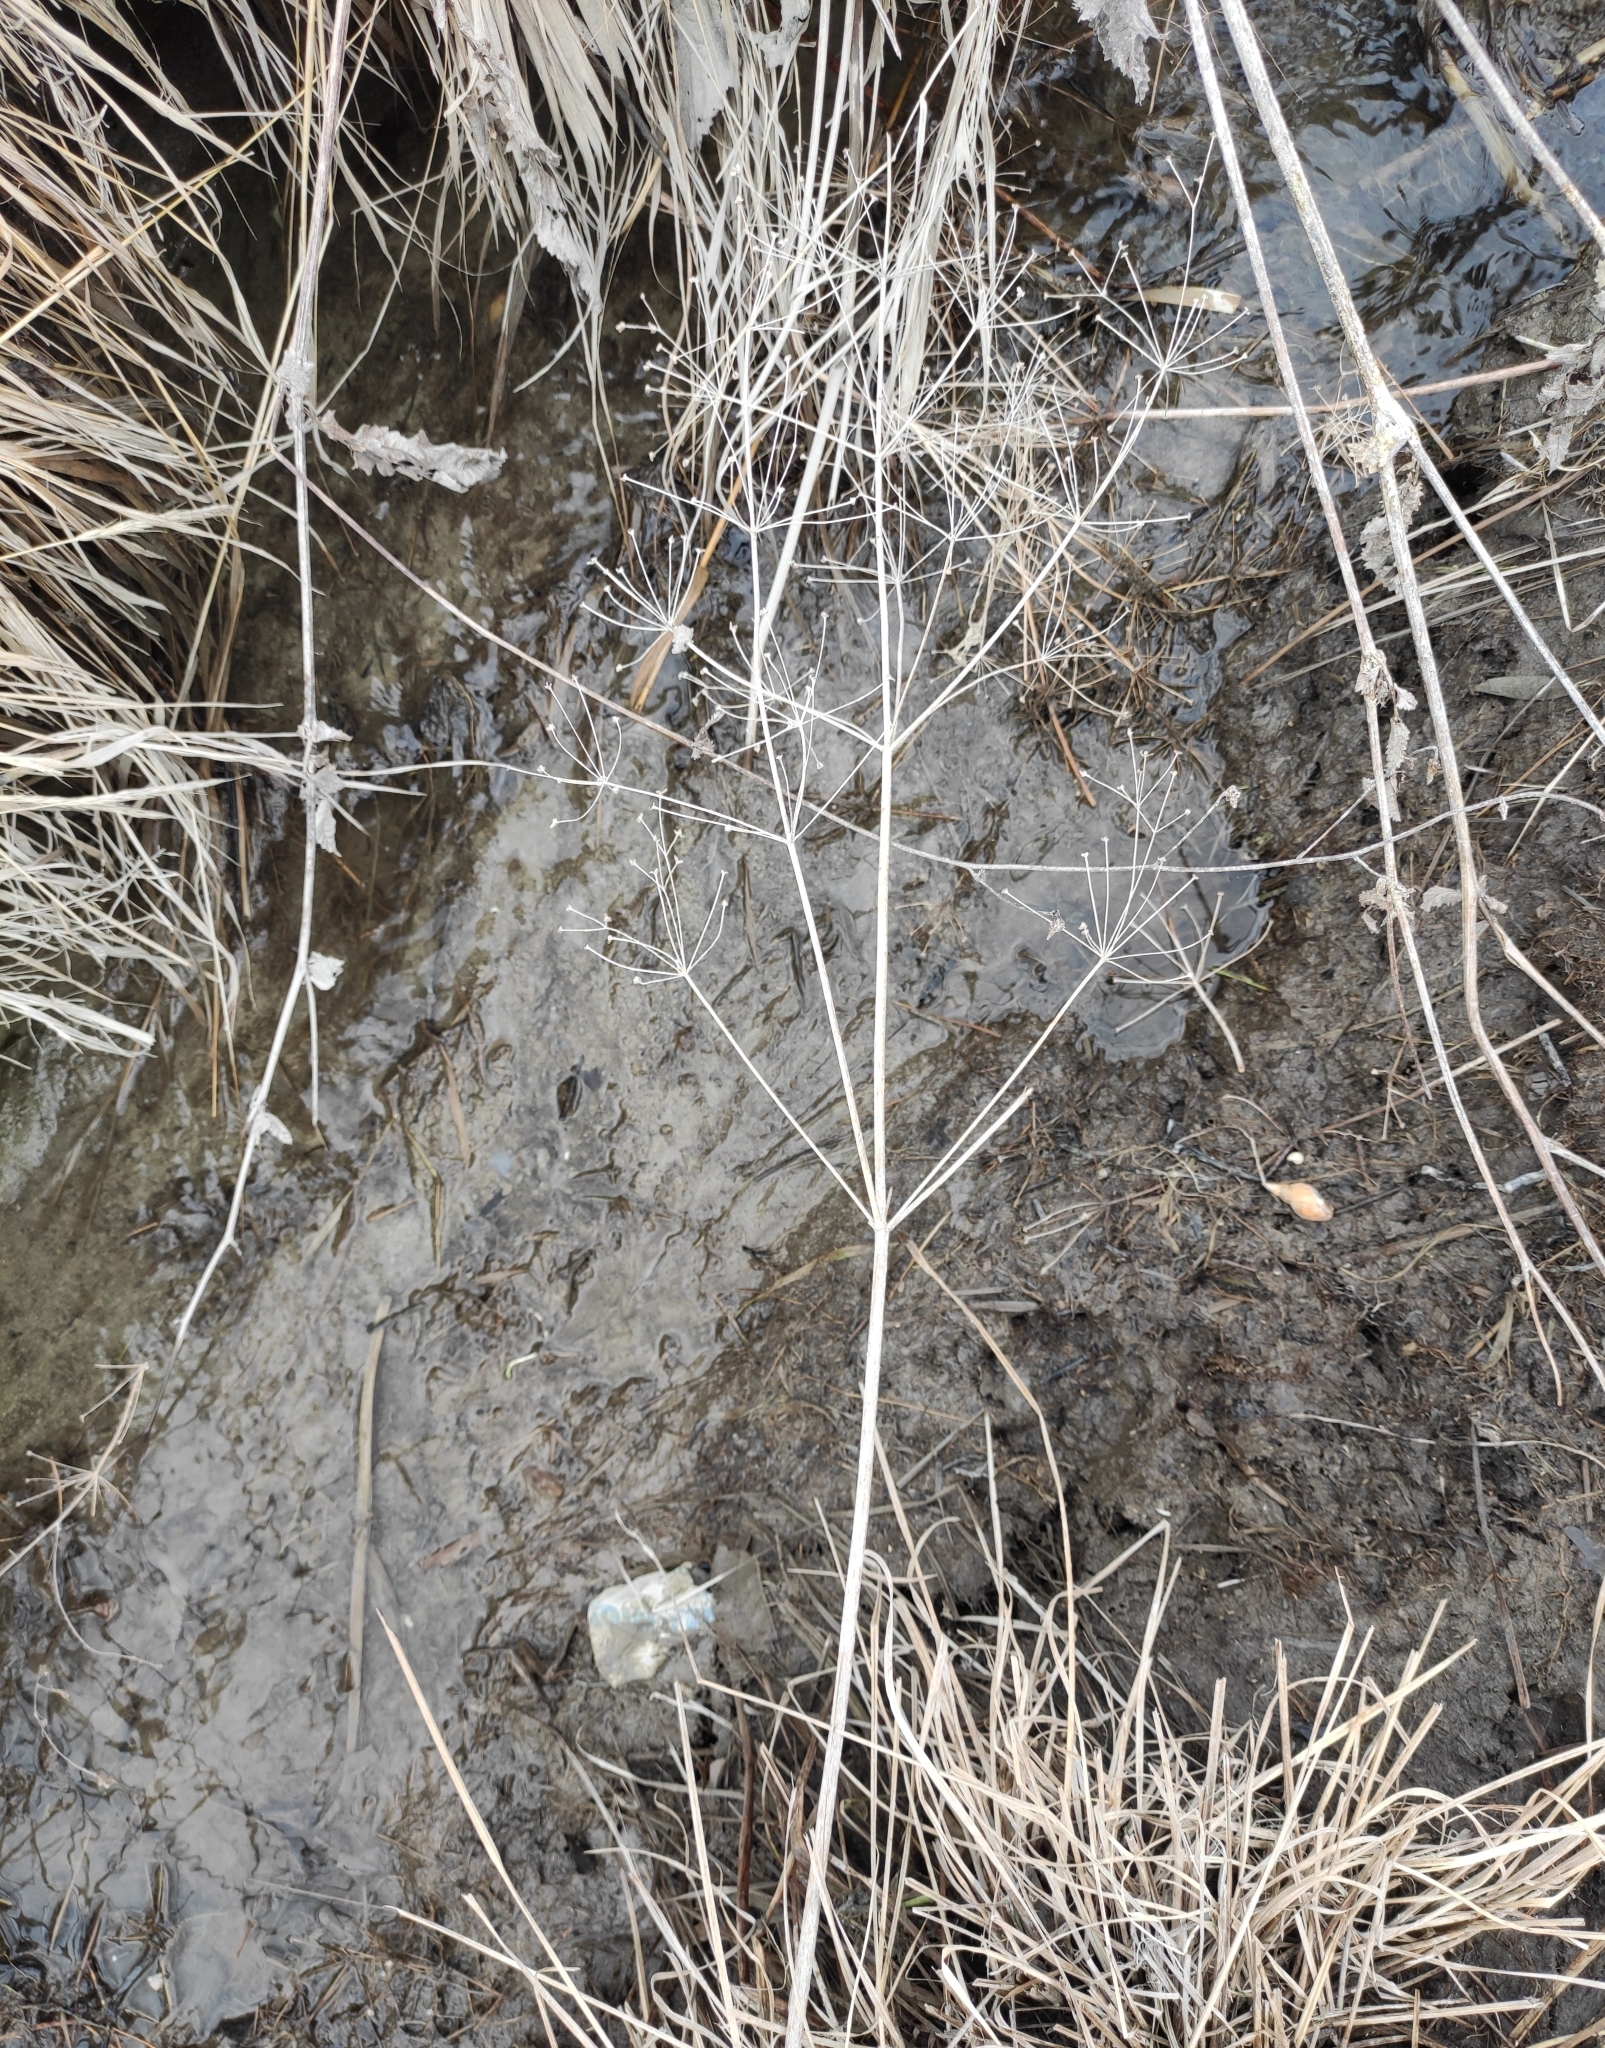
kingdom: Plantae
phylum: Tracheophyta
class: Liliopsida
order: Alismatales
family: Alismataceae
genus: Alisma
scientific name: Alisma plantago-aquatica
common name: Water-plantain
